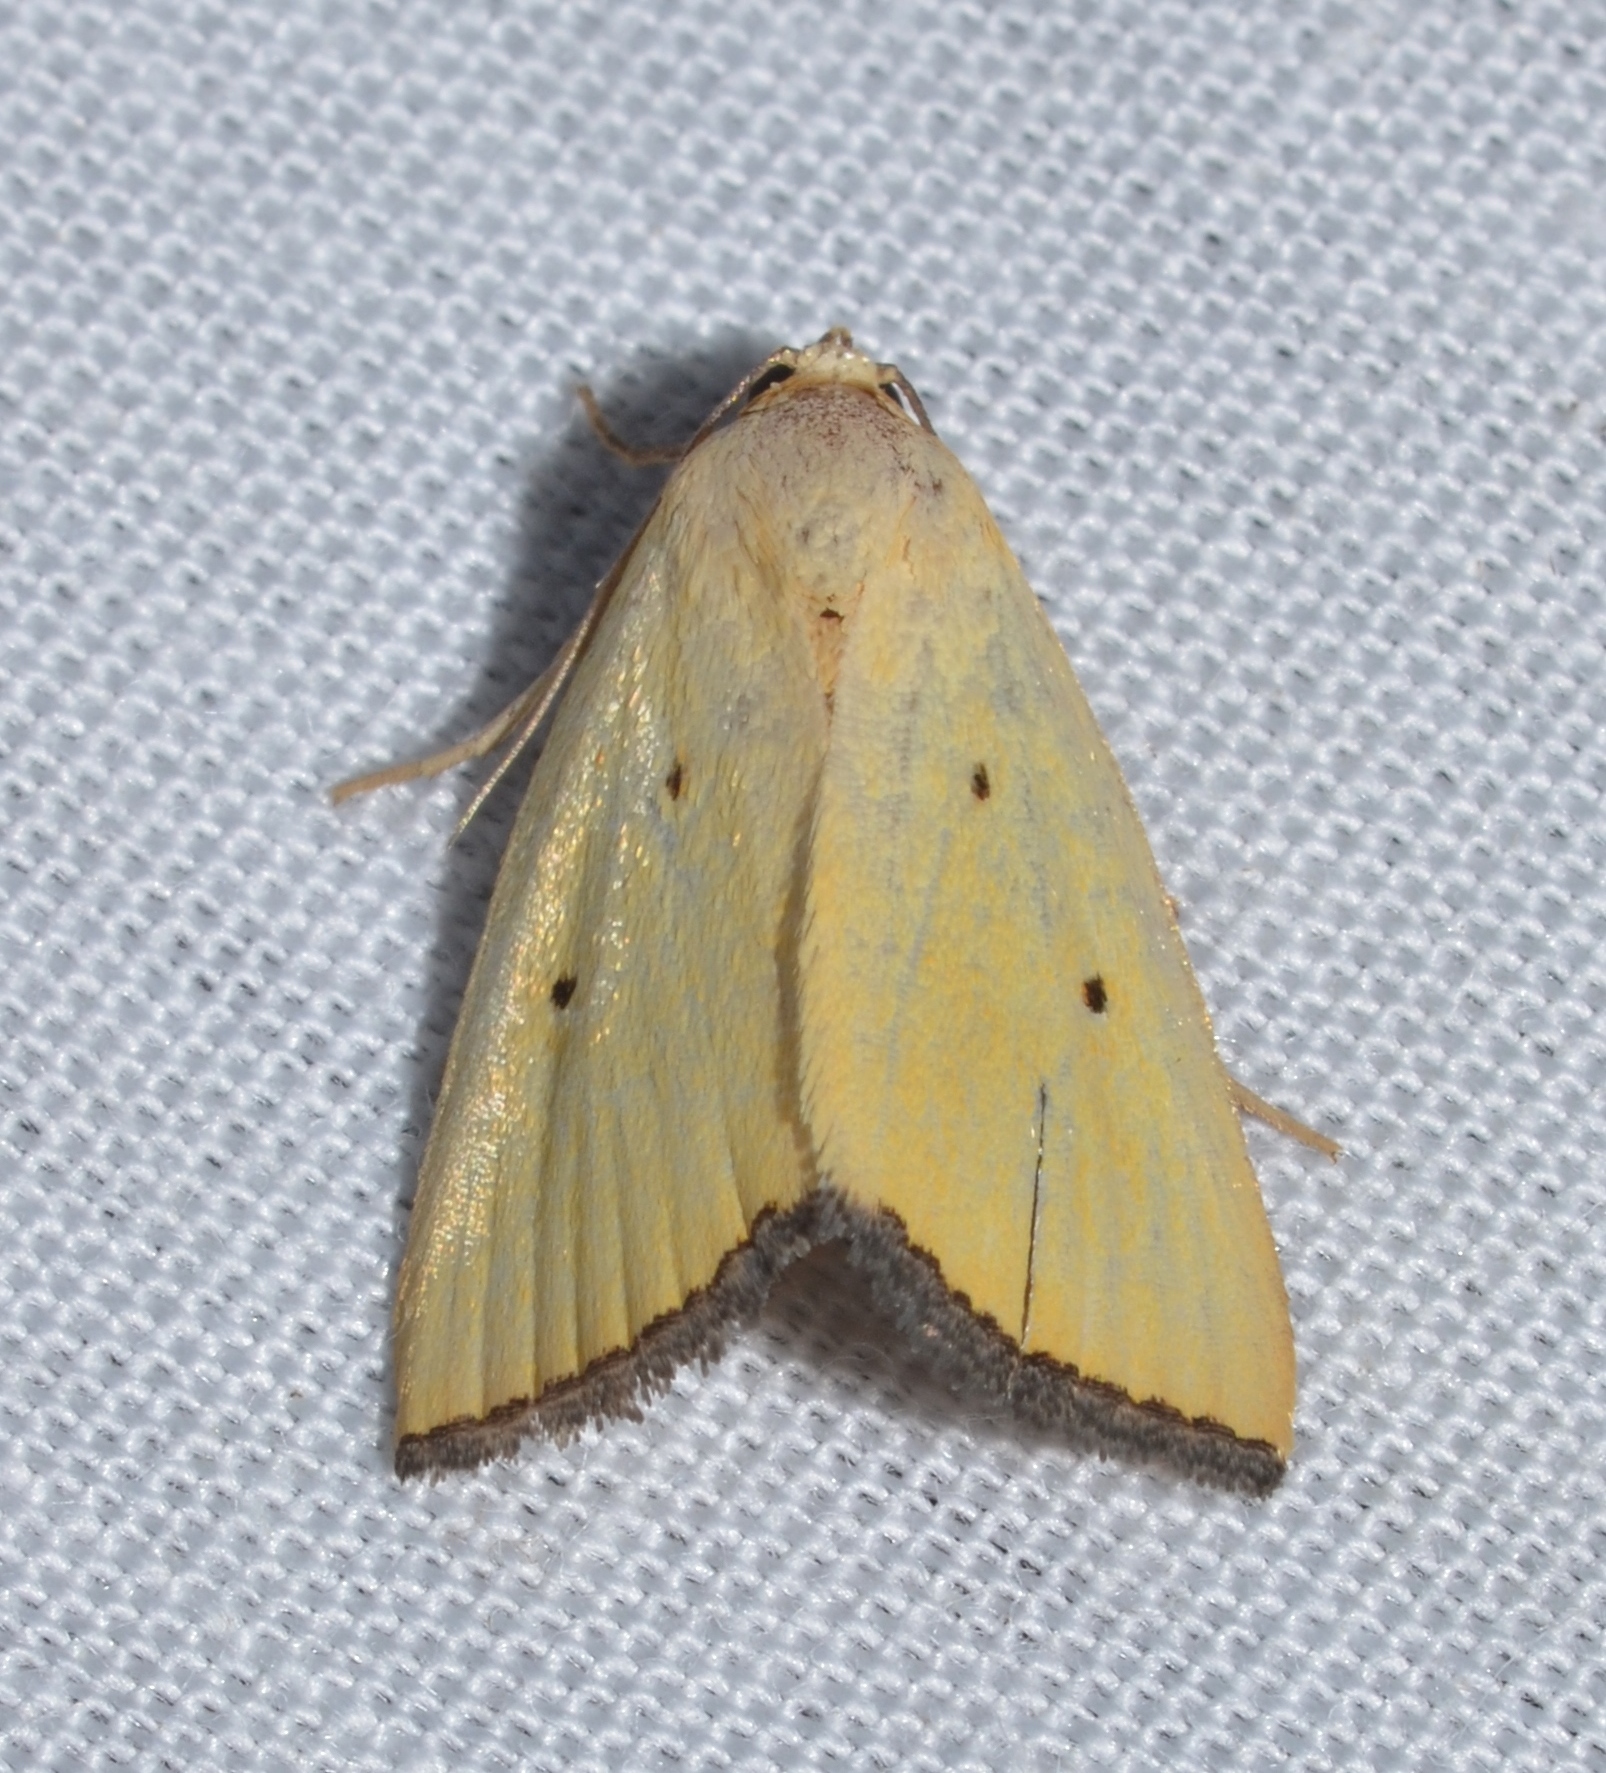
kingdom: Animalia
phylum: Arthropoda
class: Insecta
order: Lepidoptera
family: Noctuidae
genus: Marimatha
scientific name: Marimatha nigrofimbria
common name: Black-bordered lemon moth
